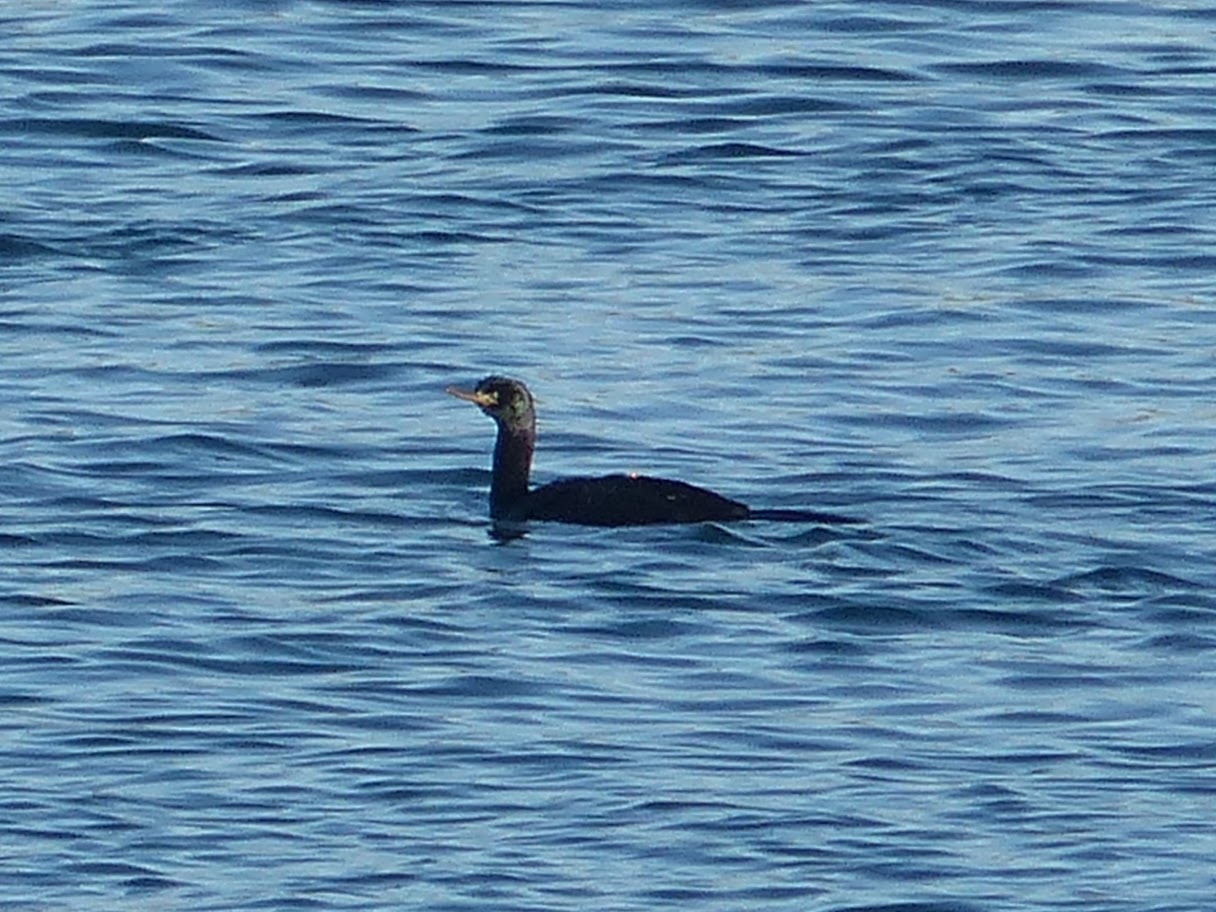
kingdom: Animalia
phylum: Chordata
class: Aves
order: Suliformes
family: Phalacrocoracidae
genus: Phalacrocorax
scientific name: Phalacrocorax pelagicus
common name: Pelagic cormorant
